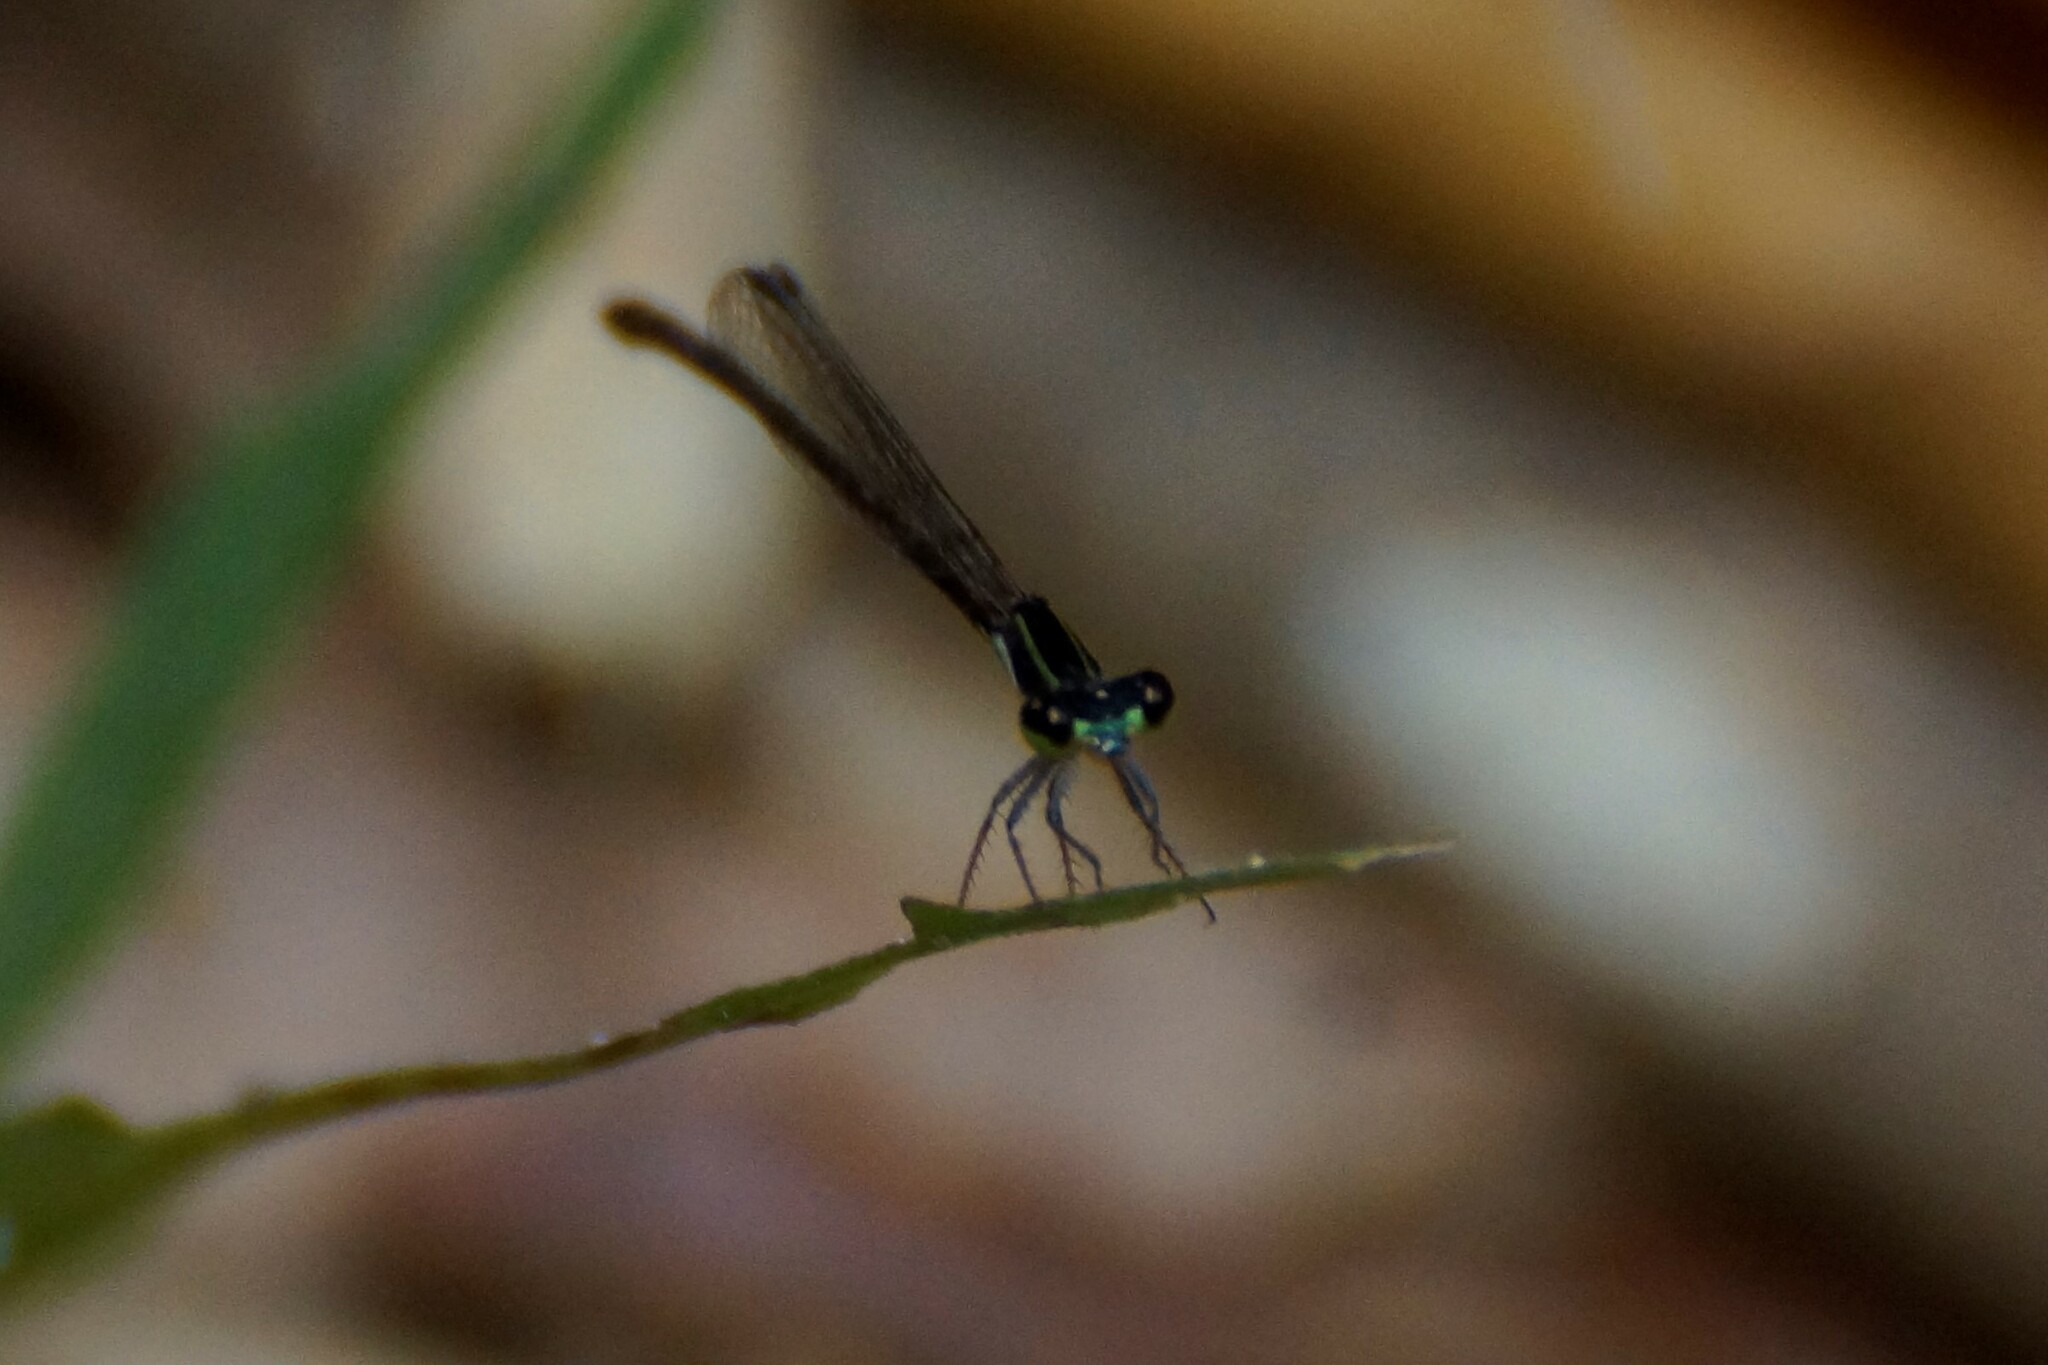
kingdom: Animalia
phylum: Arthropoda
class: Insecta
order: Odonata
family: Coenagrionidae
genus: Argiocnemis
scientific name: Argiocnemis rubescens
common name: Red-tipped shadefly
